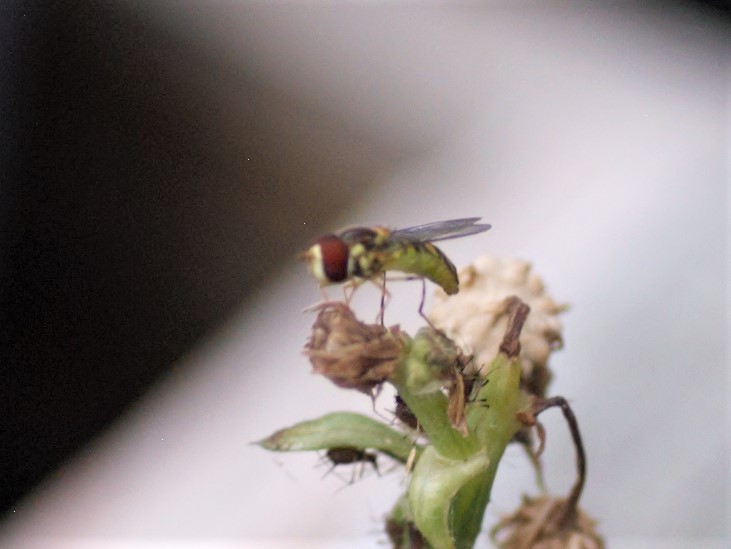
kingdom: Animalia
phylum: Arthropoda
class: Insecta
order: Diptera
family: Syrphidae
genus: Allograpta
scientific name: Allograpta obliqua
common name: Common oblique syrphid
